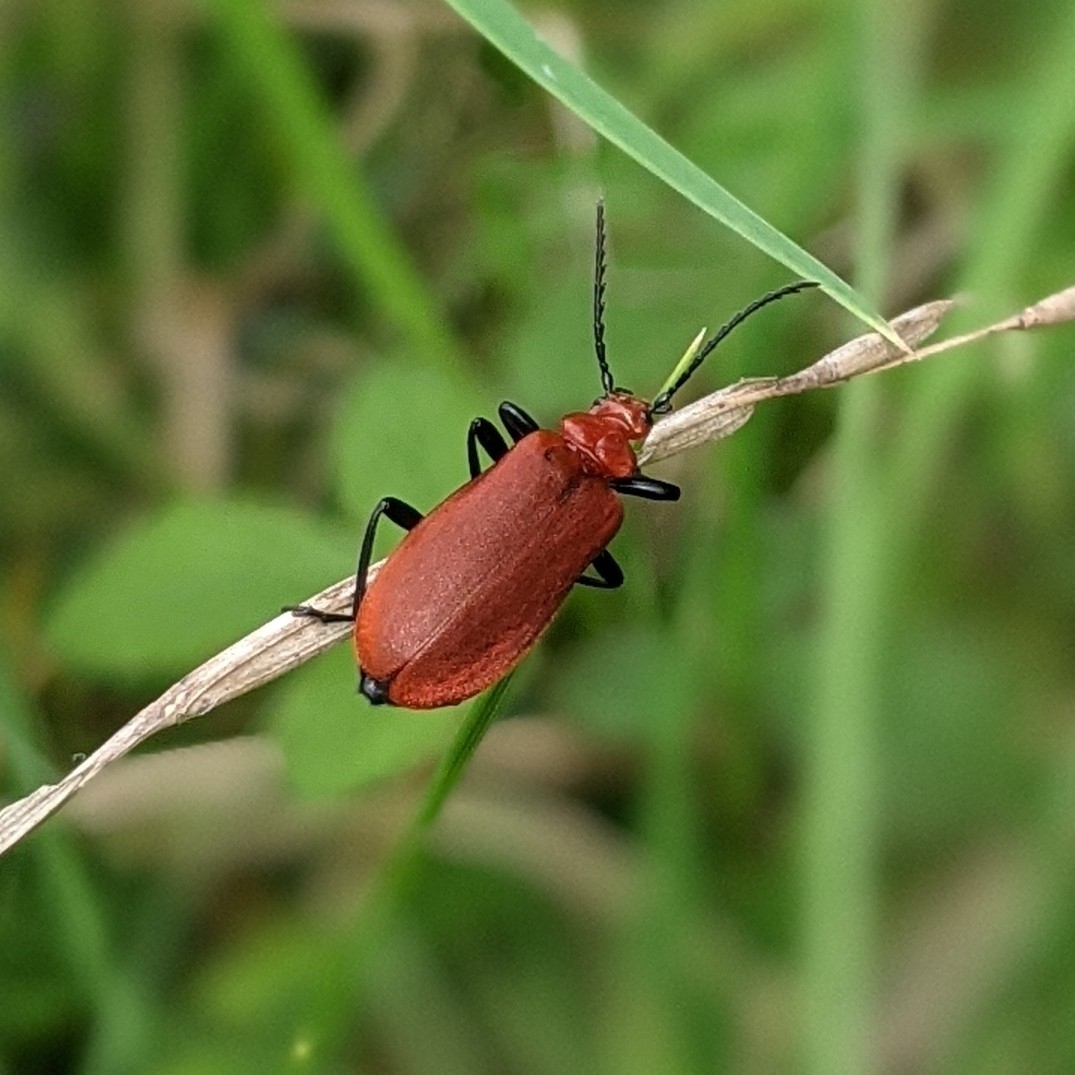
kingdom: Animalia
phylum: Arthropoda
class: Insecta
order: Coleoptera
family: Pyrochroidae
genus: Pyrochroa
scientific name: Pyrochroa serraticornis
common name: Red-headed cardinal beetle
